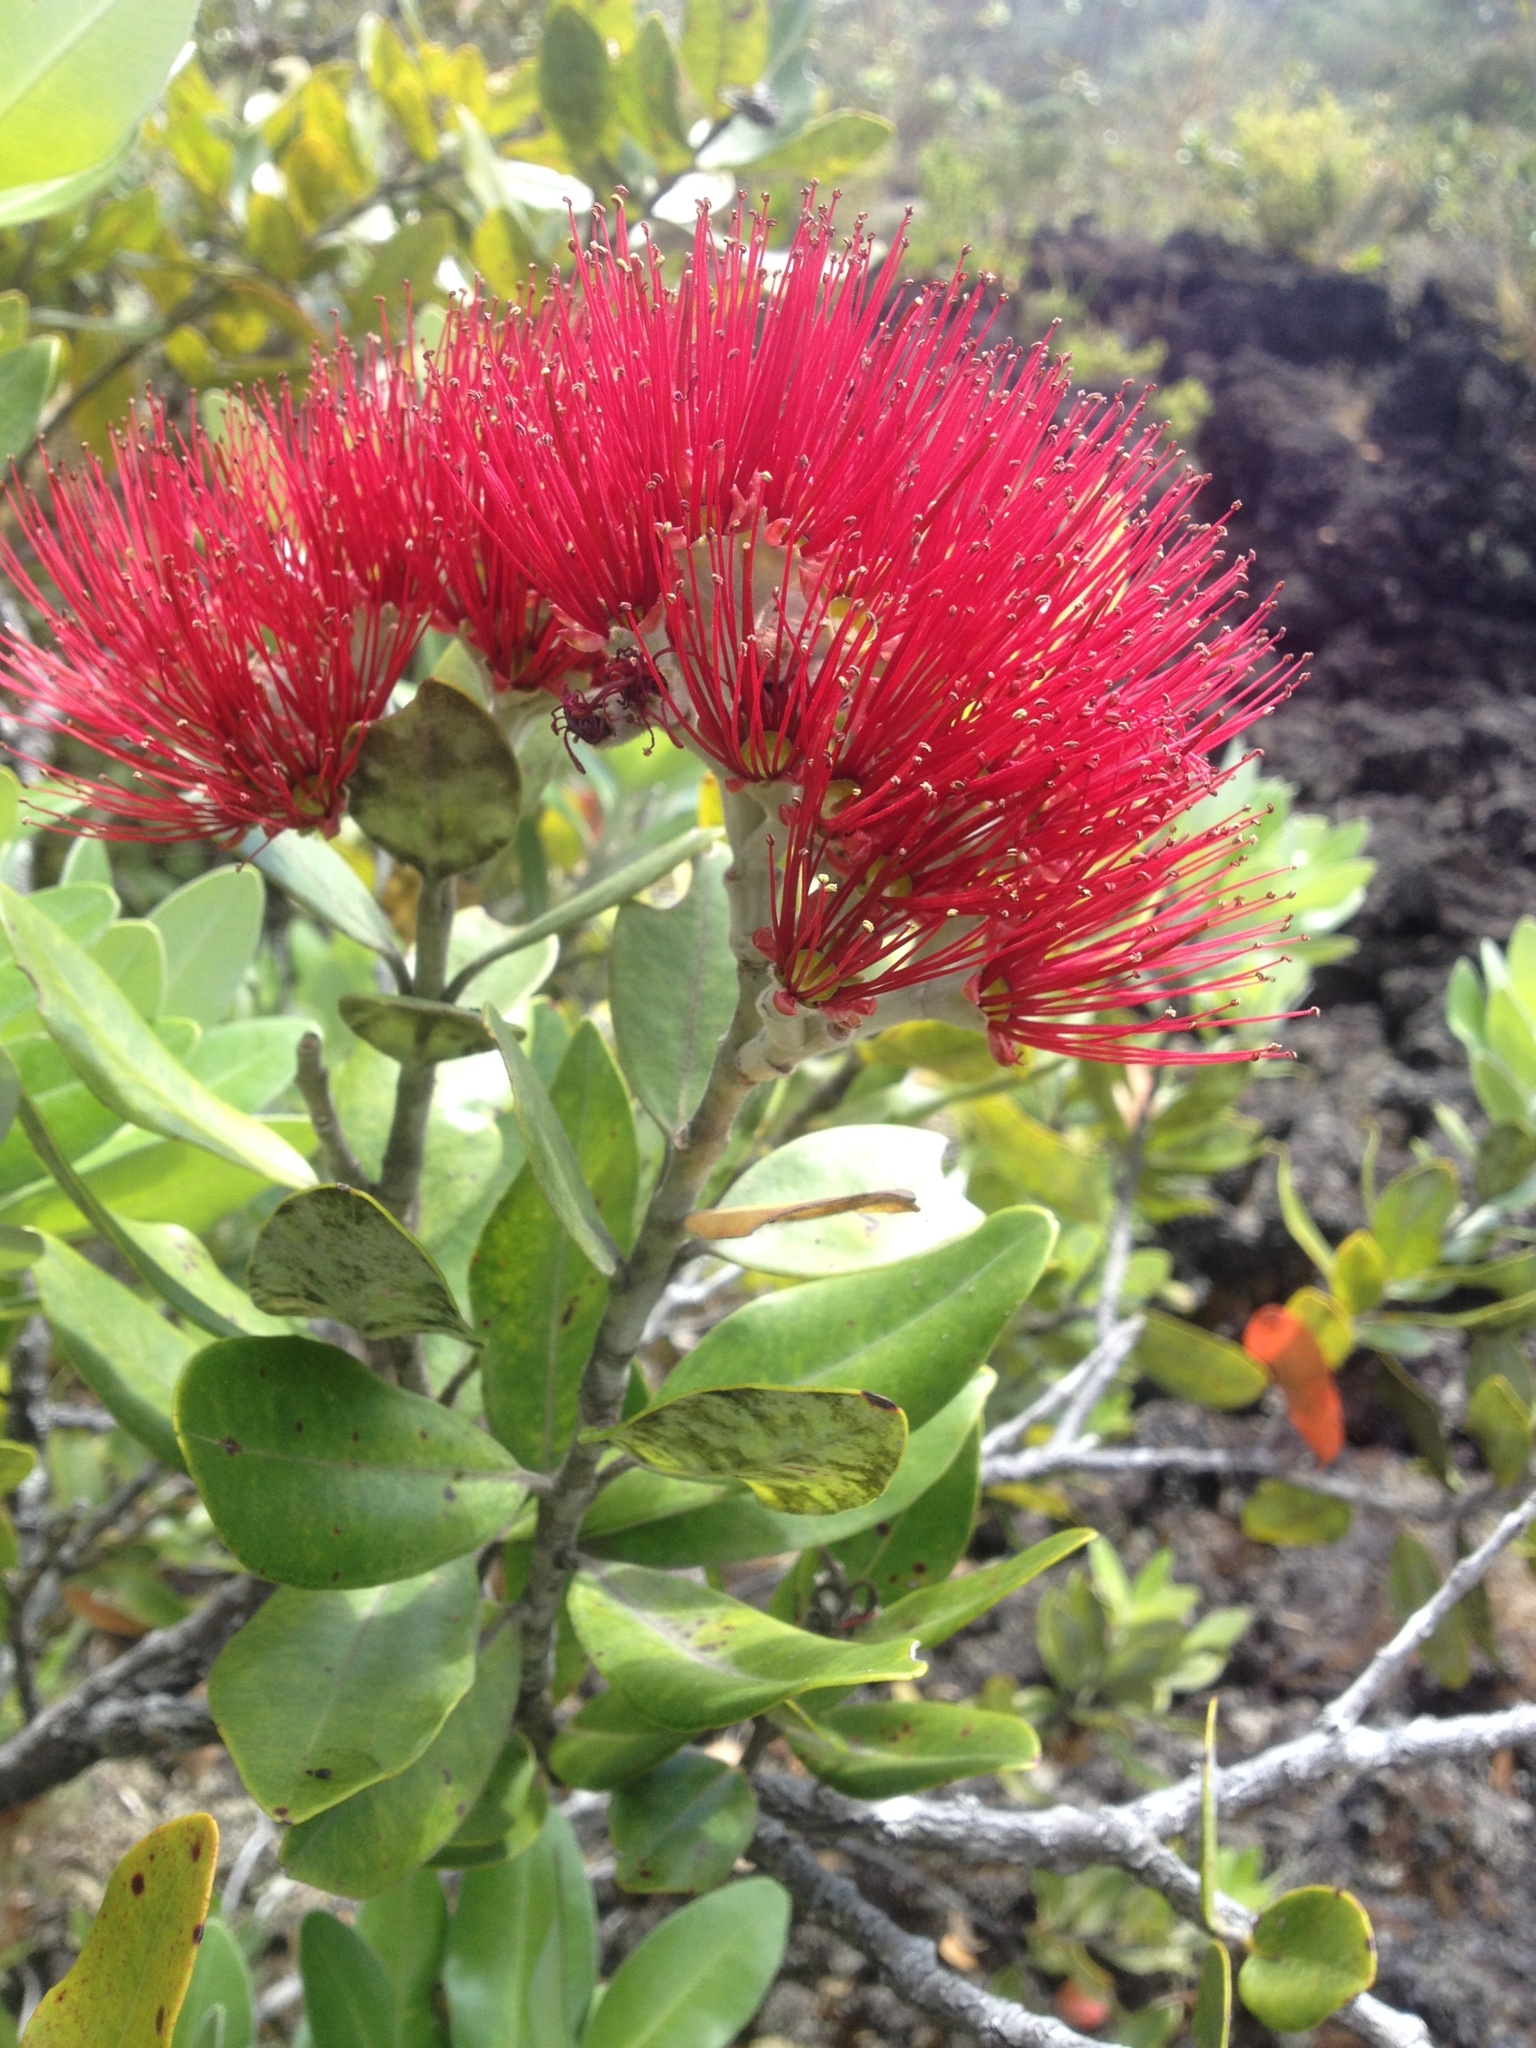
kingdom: Plantae
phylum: Tracheophyta
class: Magnoliopsida
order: Myrtales
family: Myrtaceae
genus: Metrosideros
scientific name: Metrosideros excelsa
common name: New zealand christmastree
